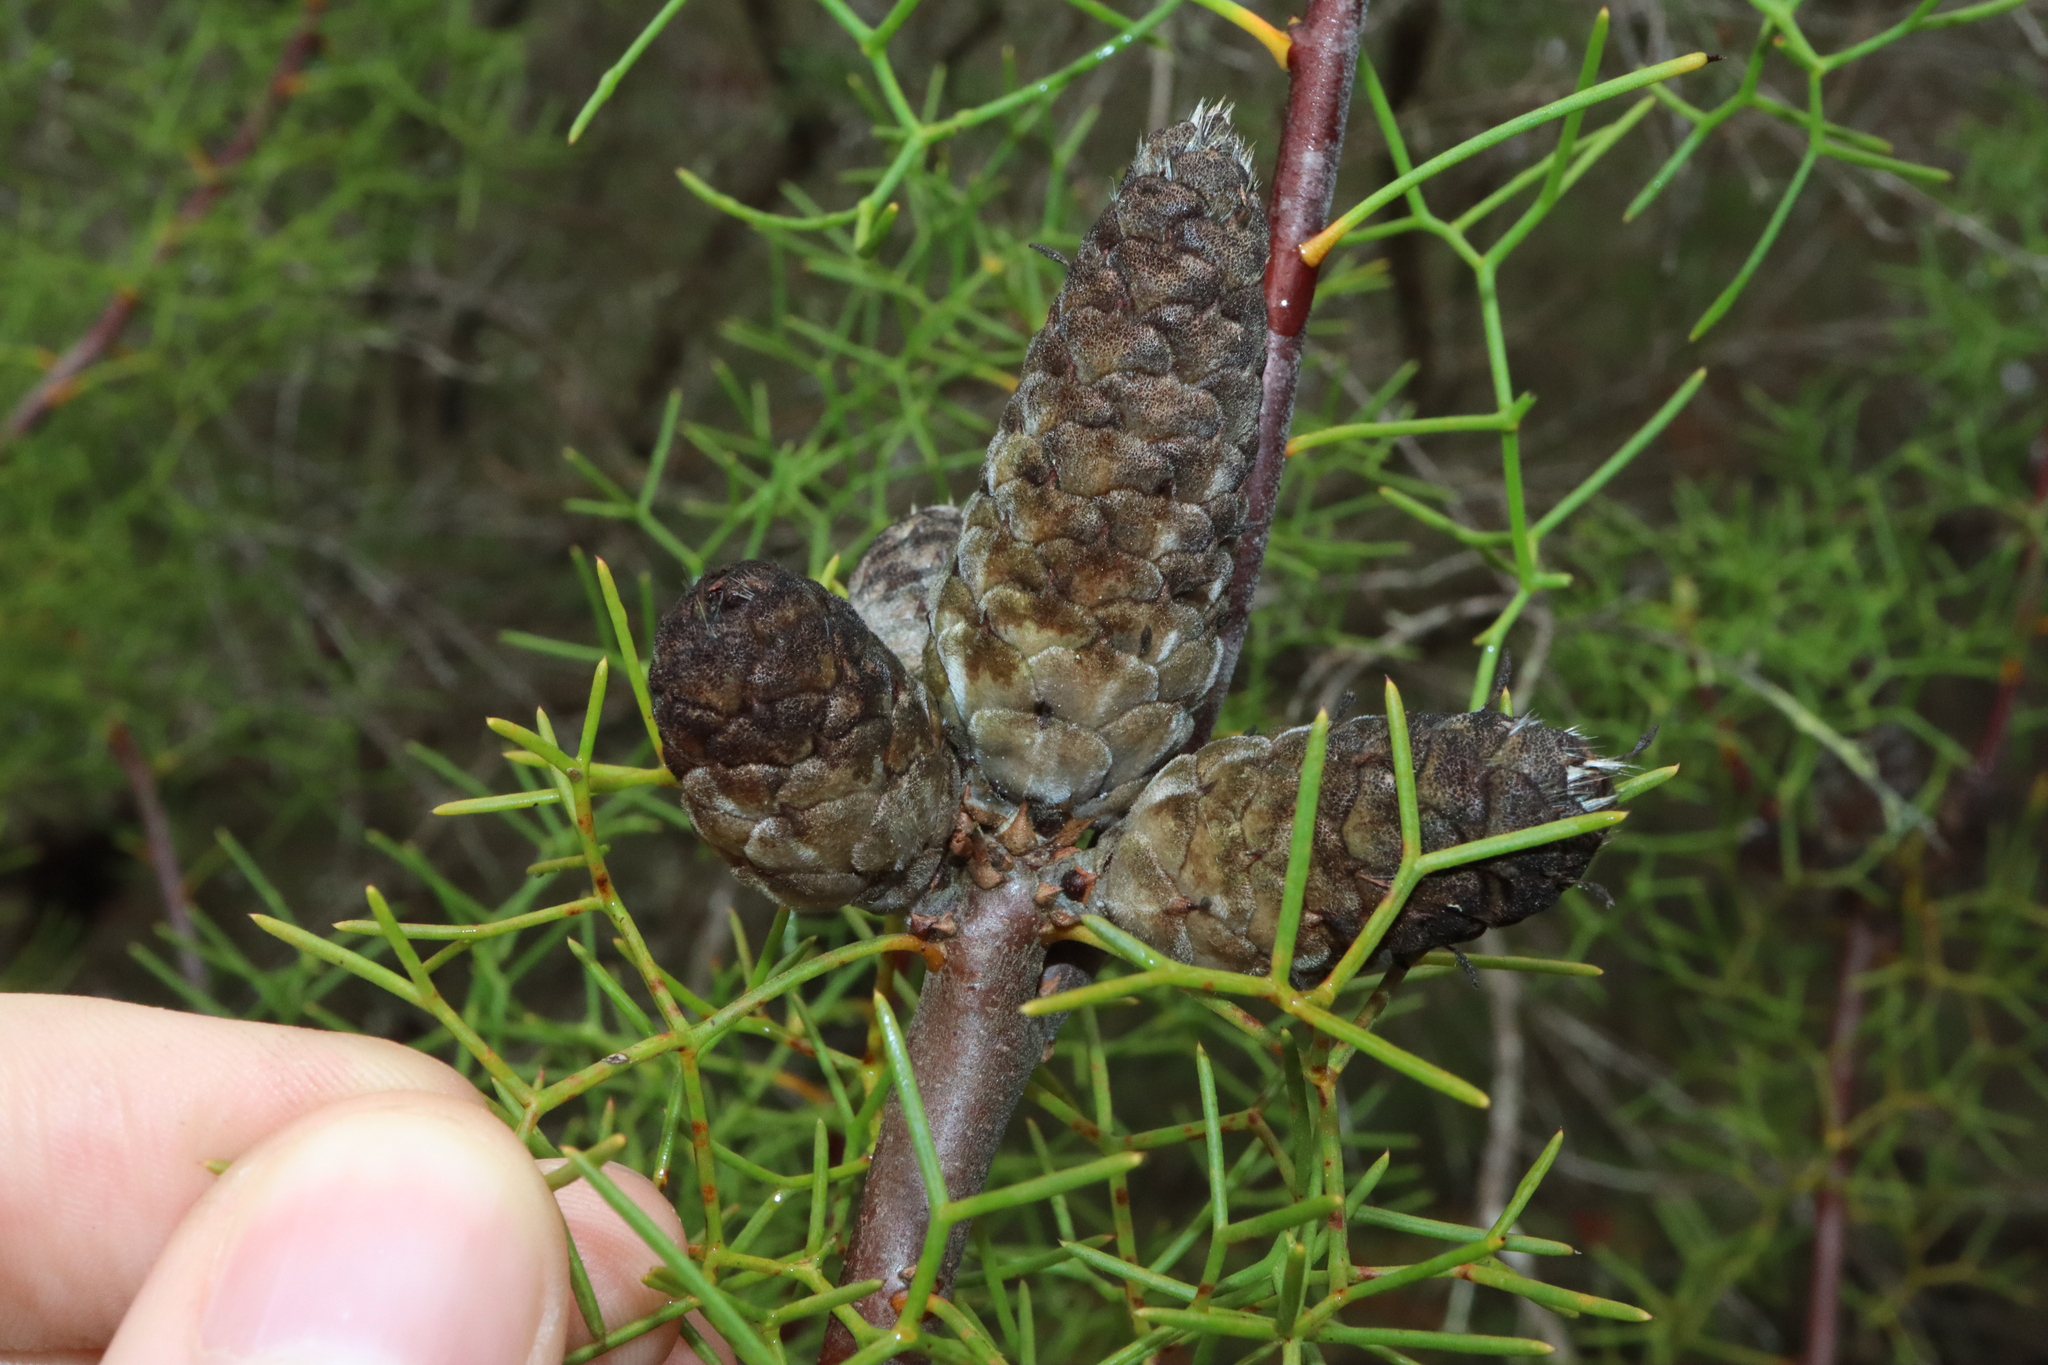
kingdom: Plantae
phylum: Tracheophyta
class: Magnoliopsida
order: Proteales
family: Proteaceae
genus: Petrophile
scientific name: Petrophile sessilis
